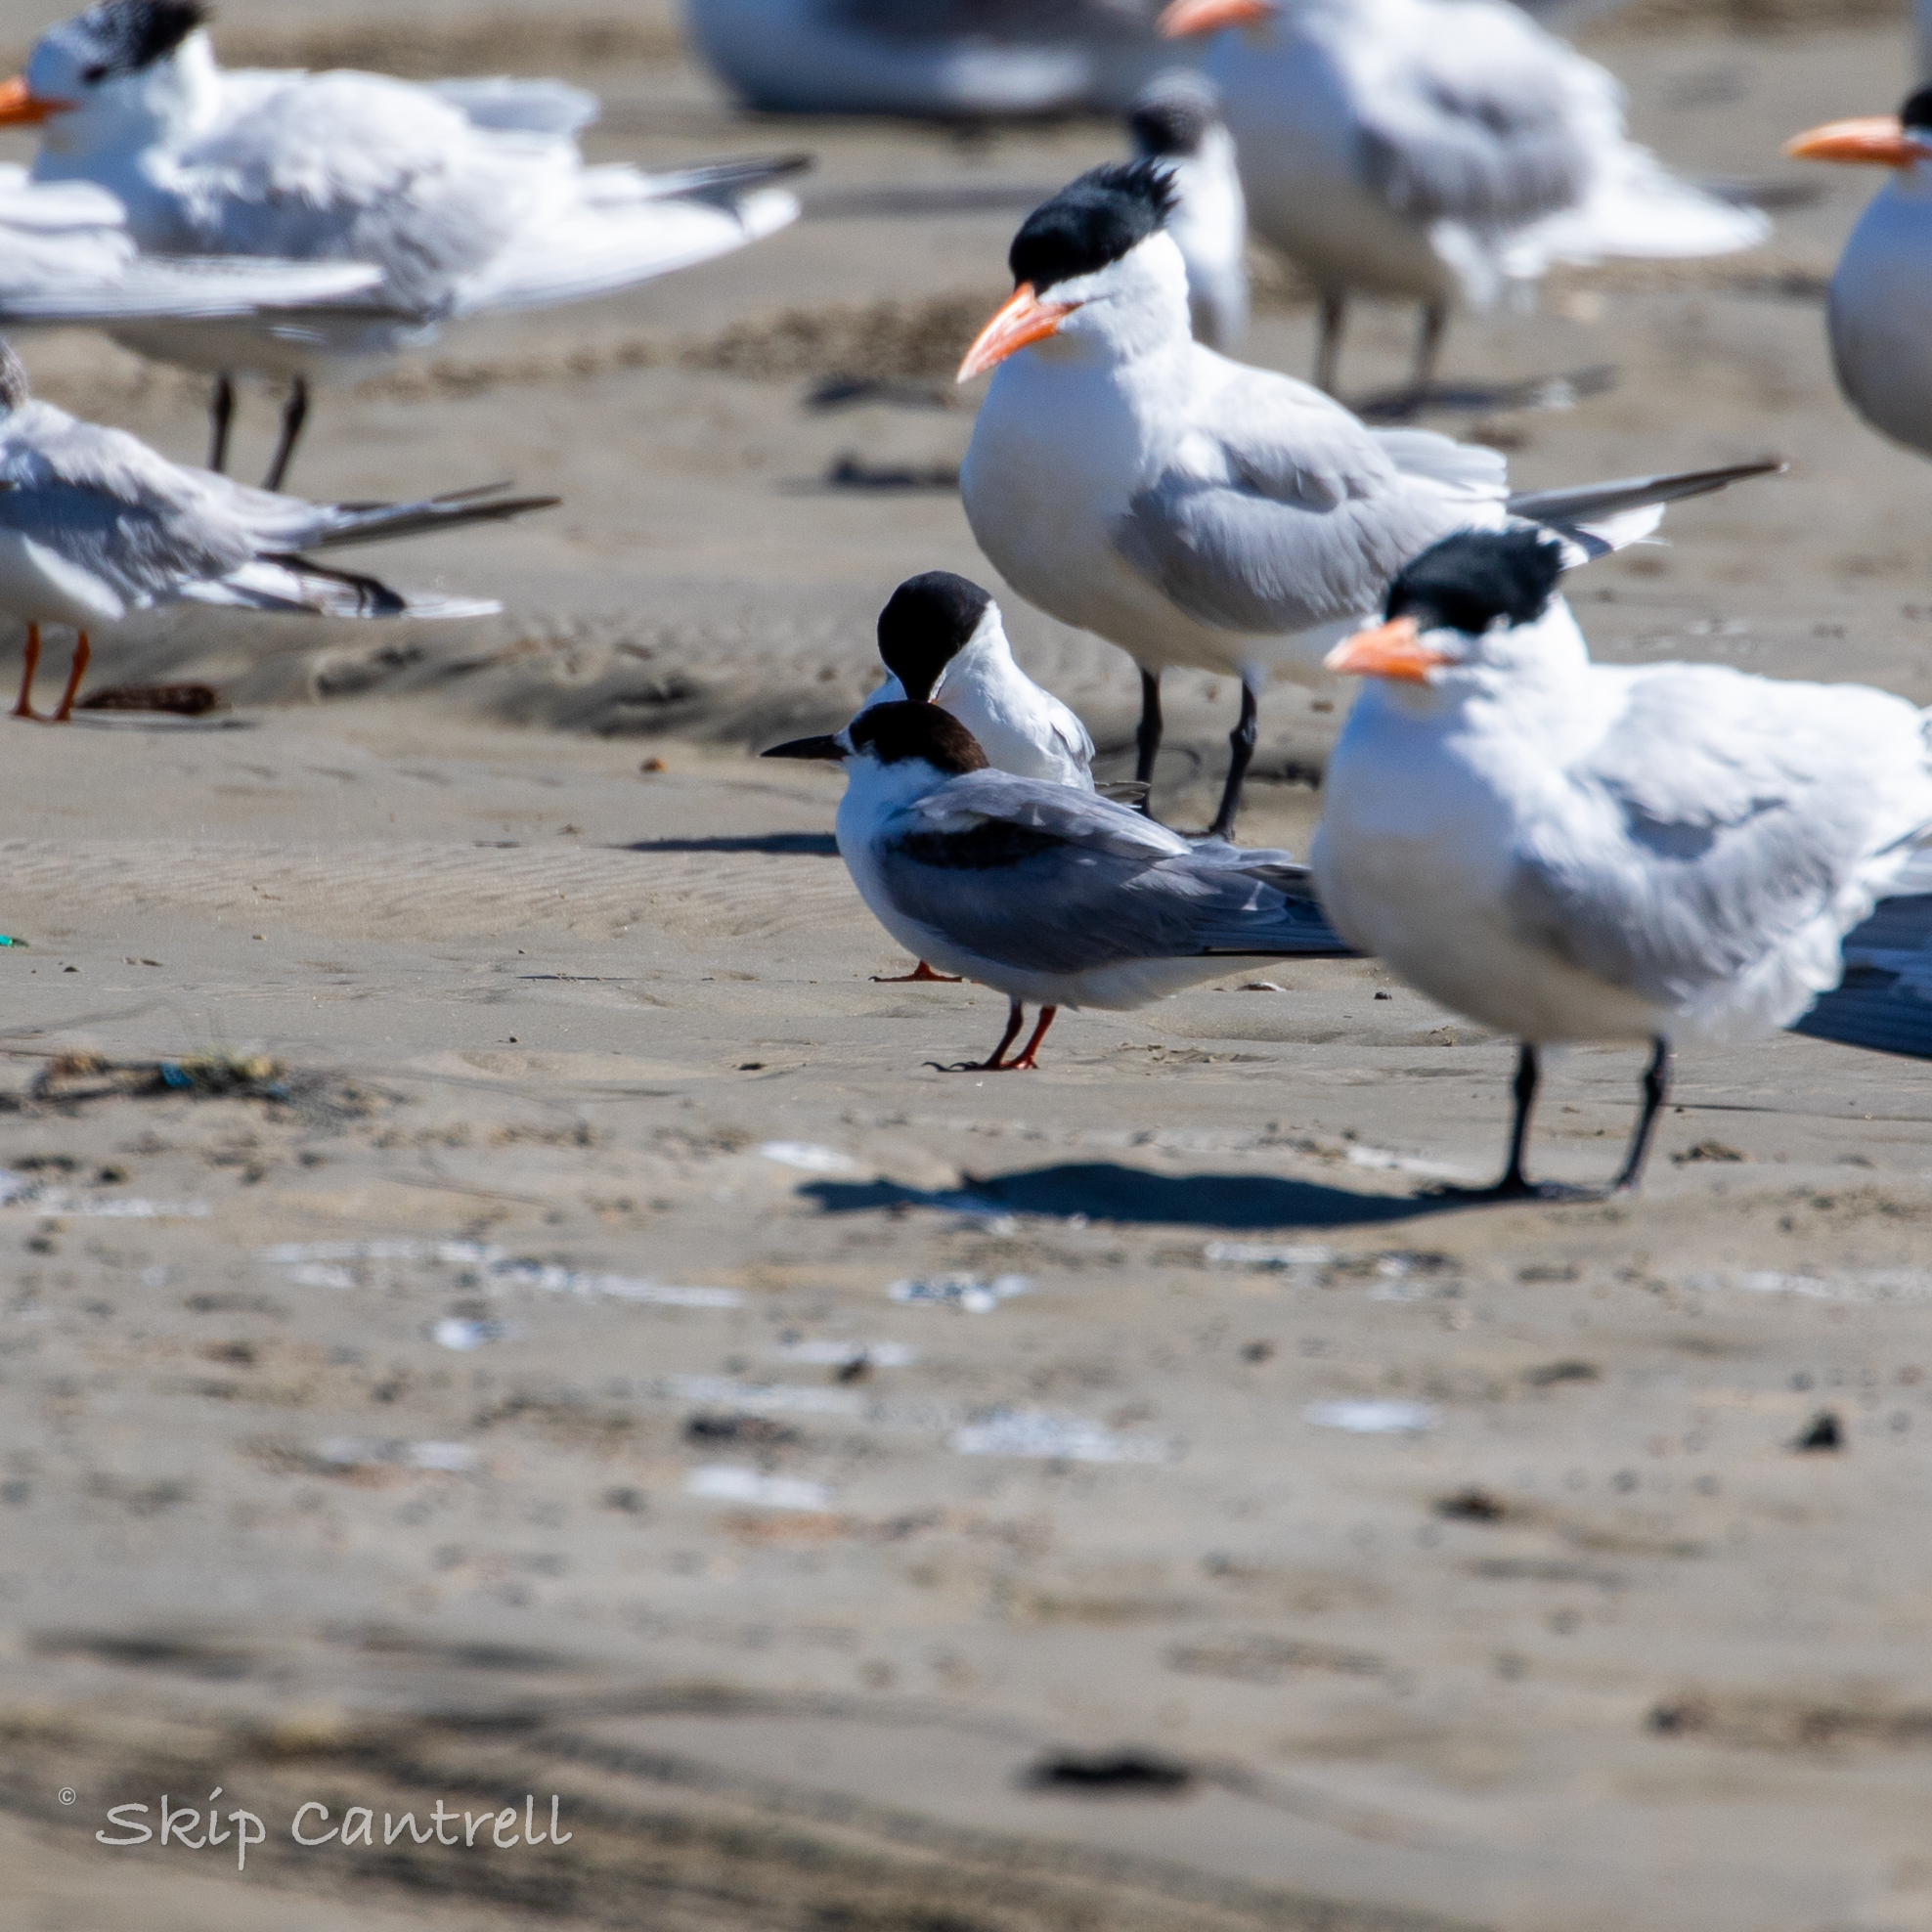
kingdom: Animalia
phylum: Chordata
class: Aves
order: Charadriiformes
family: Laridae
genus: Sterna
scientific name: Sterna hirundo
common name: Common tern
